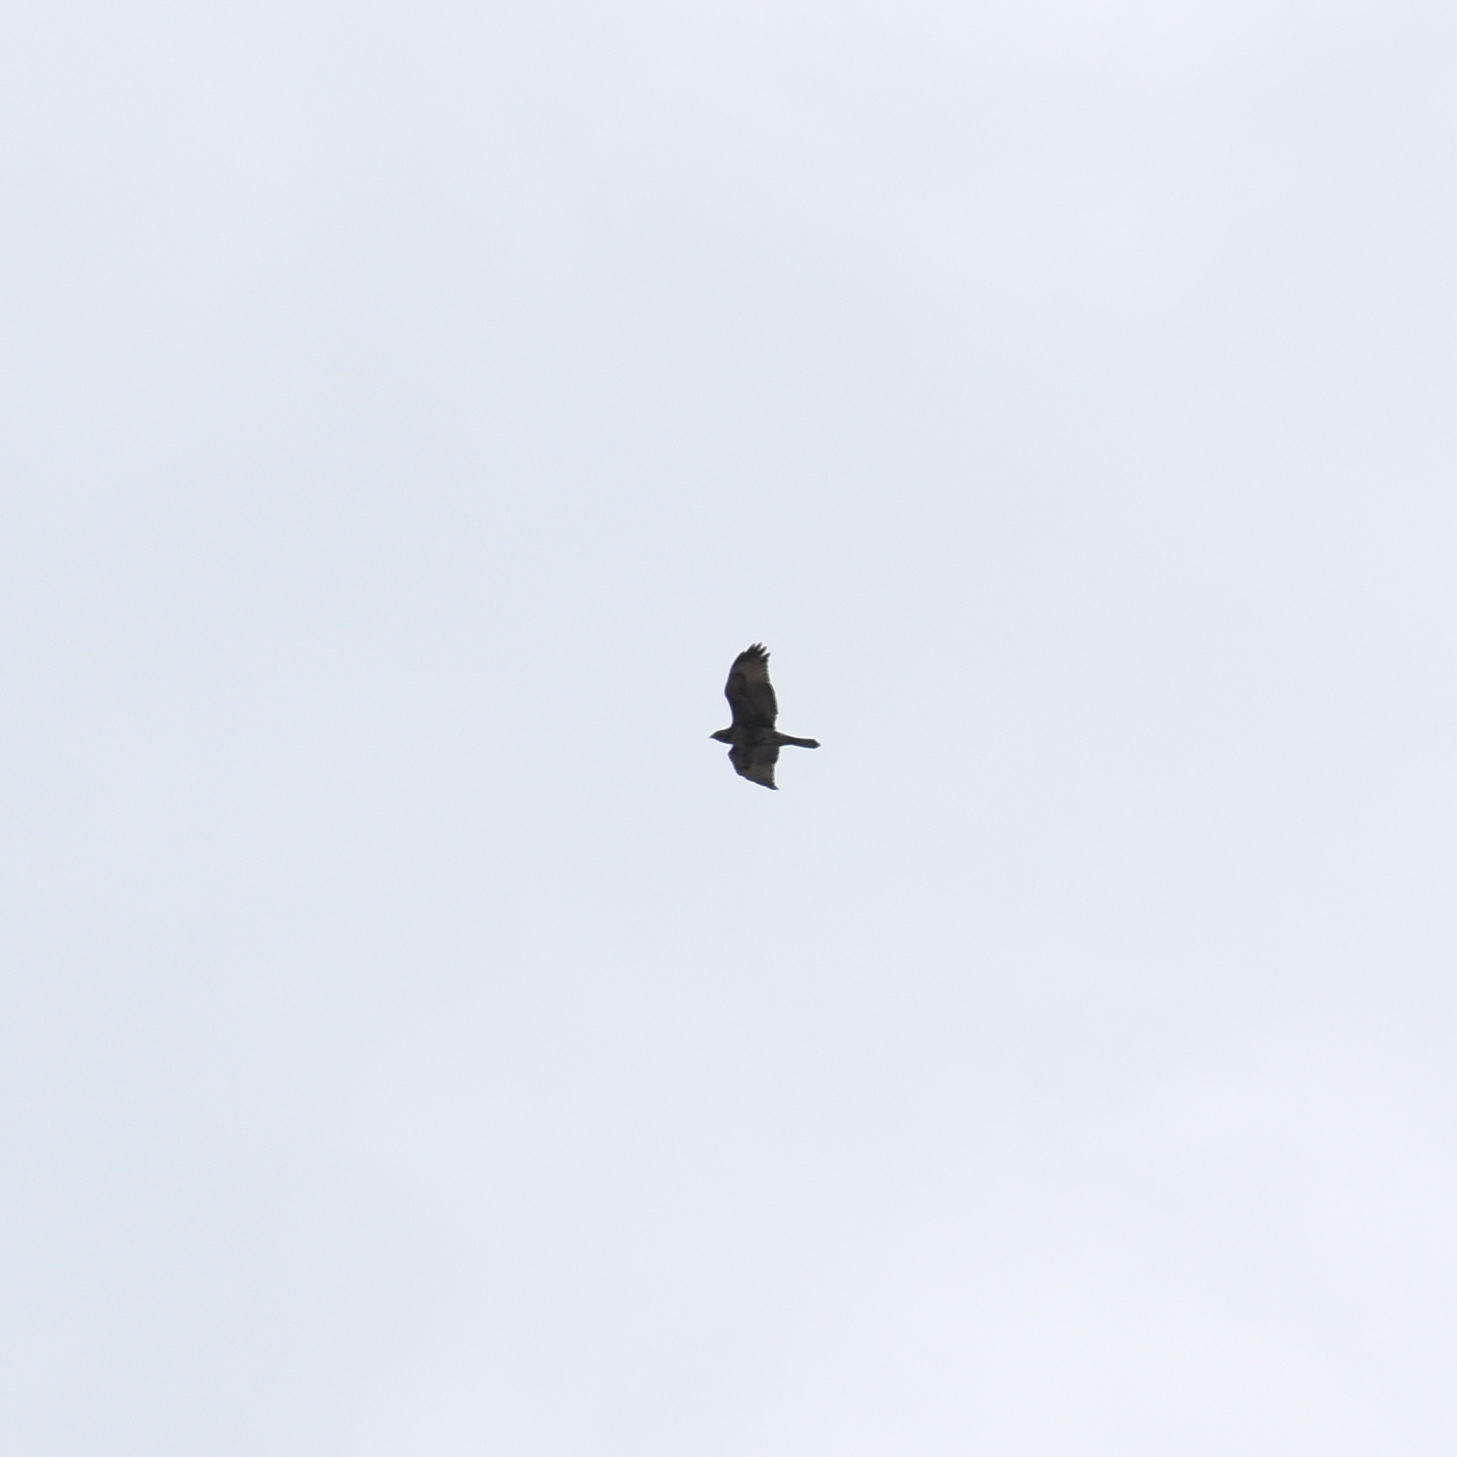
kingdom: Animalia
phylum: Chordata
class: Aves
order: Accipitriformes
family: Accipitridae
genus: Buteo
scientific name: Buteo jamaicensis
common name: Red-tailed hawk
